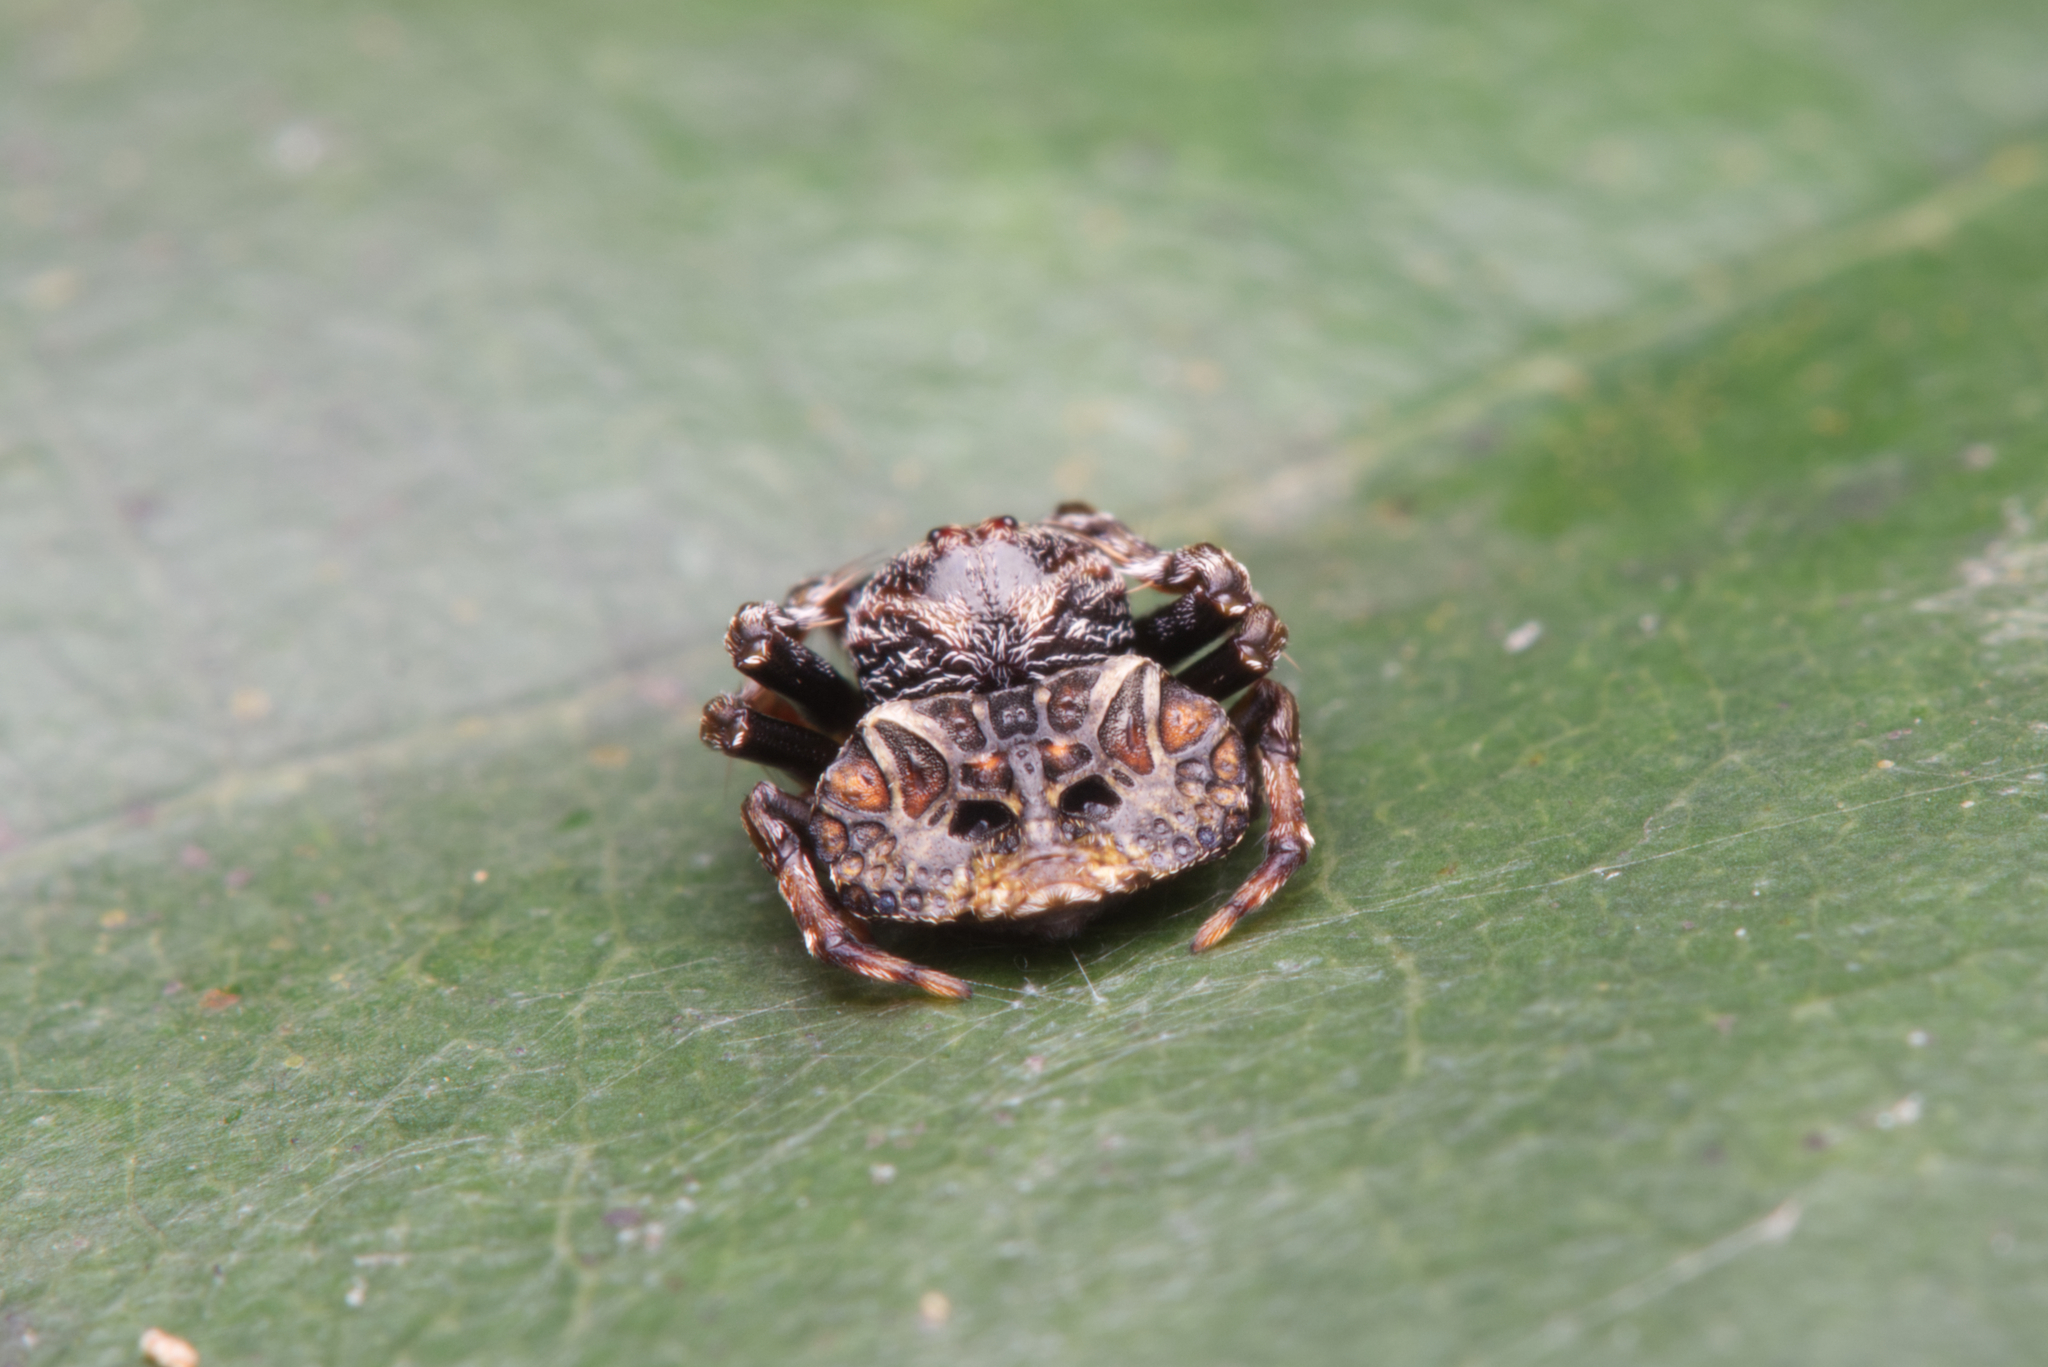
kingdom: Animalia
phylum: Arthropoda
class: Arachnida
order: Araneae
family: Arkyidae
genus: Arkys
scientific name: Arkys curtulus
